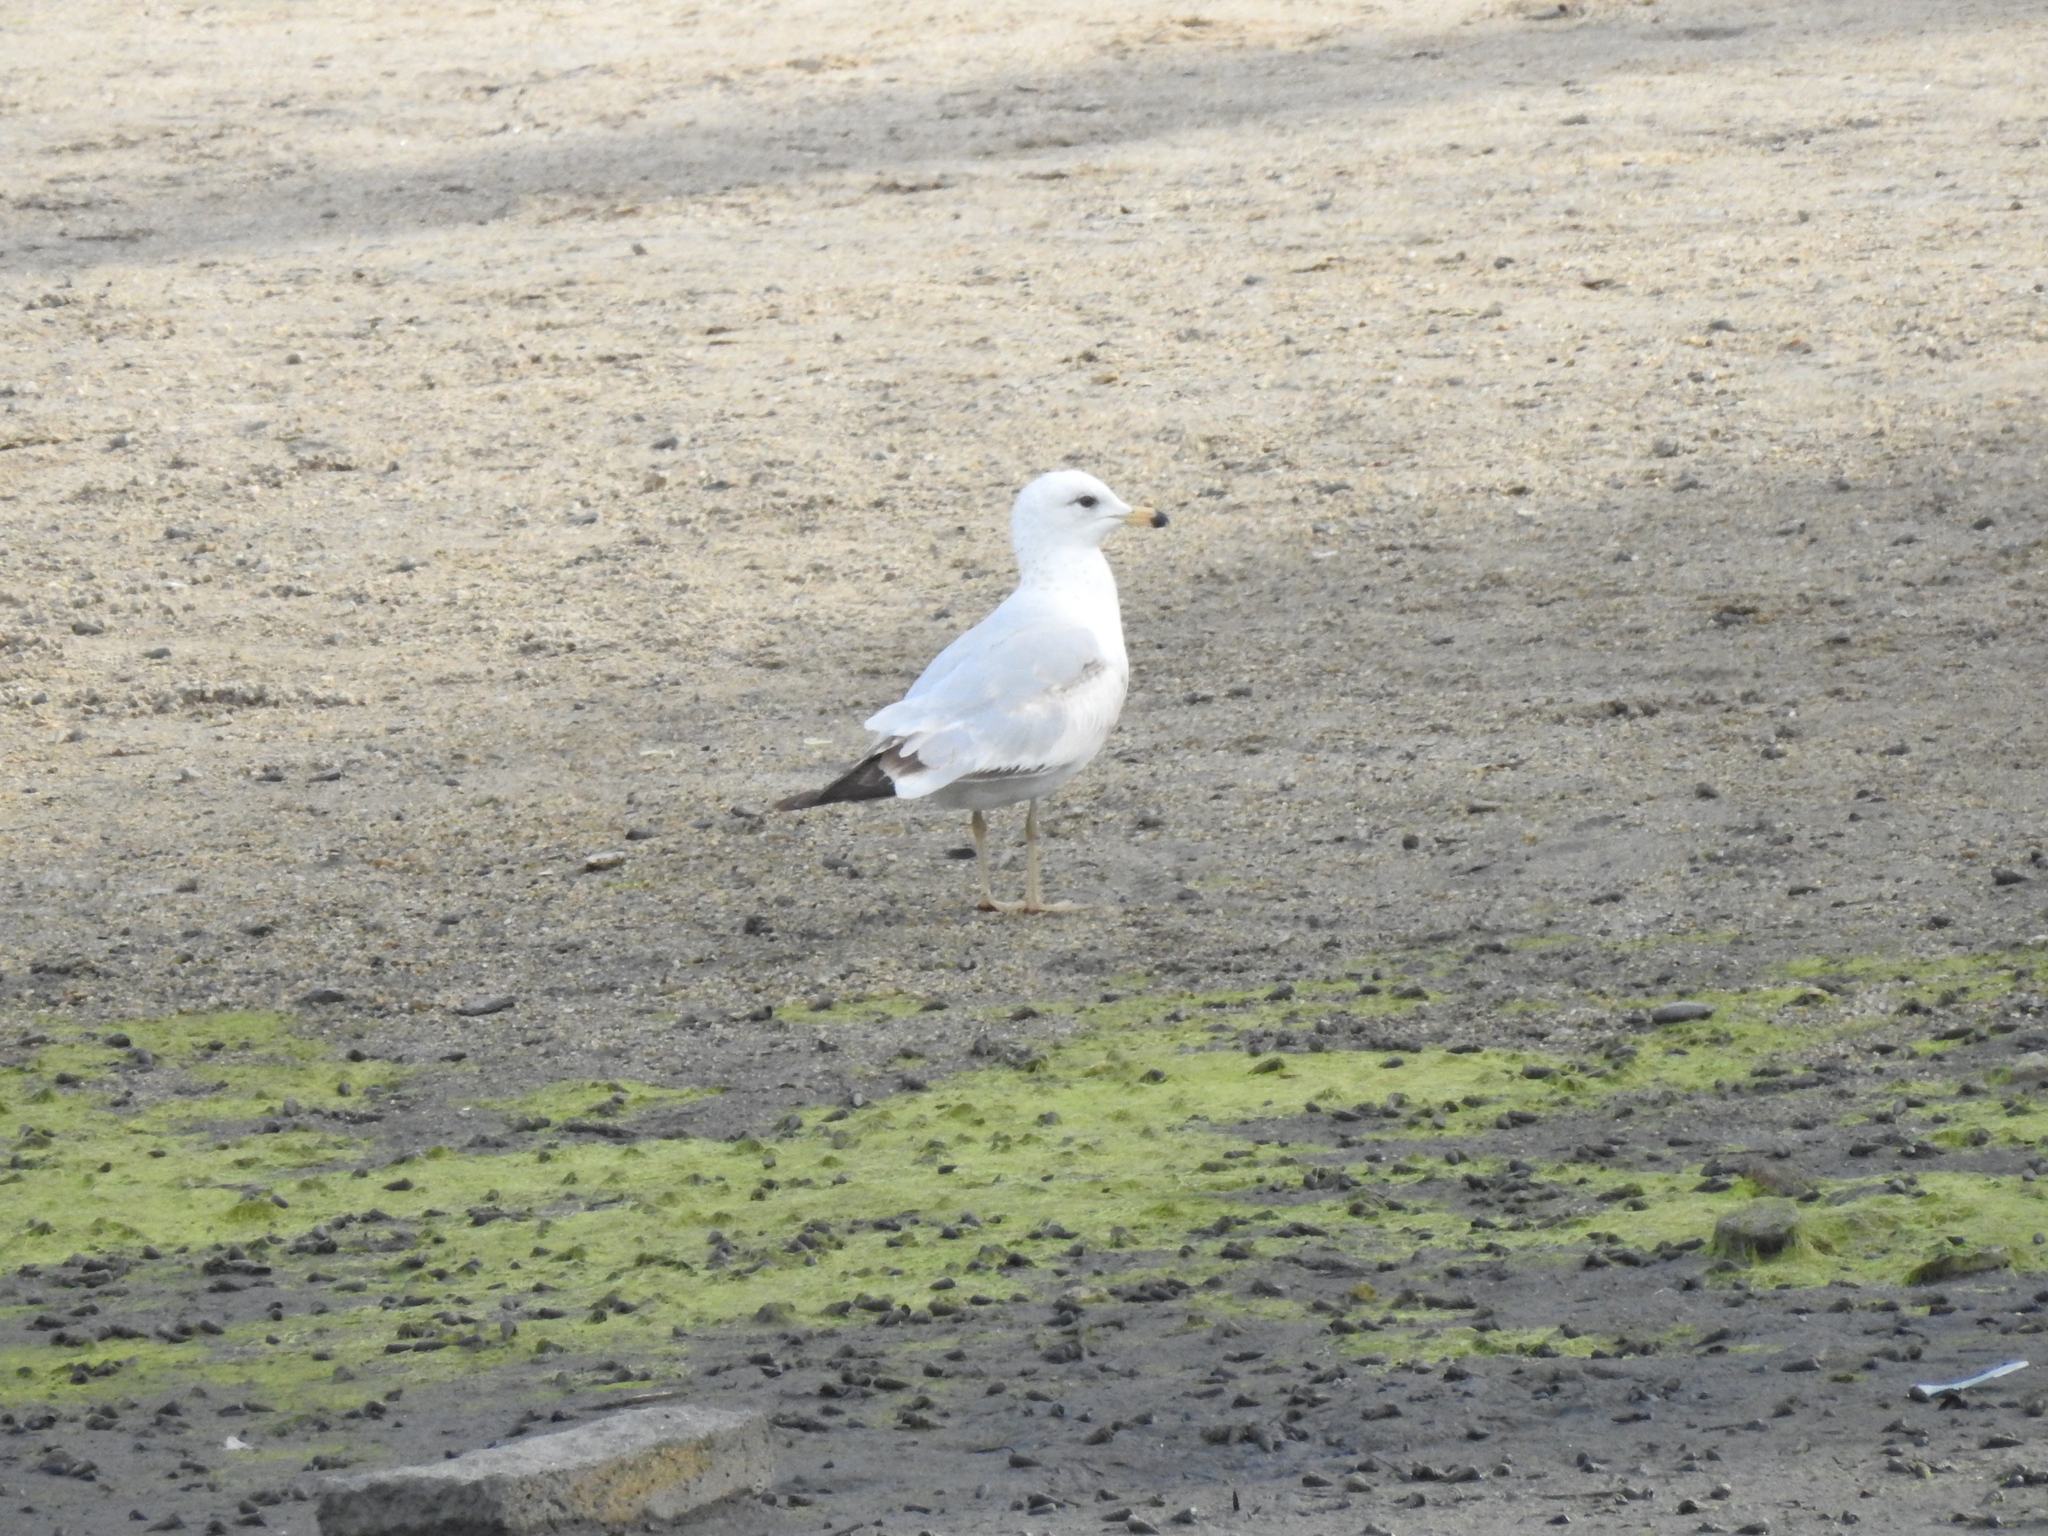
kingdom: Animalia
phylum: Chordata
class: Aves
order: Charadriiformes
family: Laridae
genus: Larus
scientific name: Larus delawarensis
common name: Ring-billed gull
